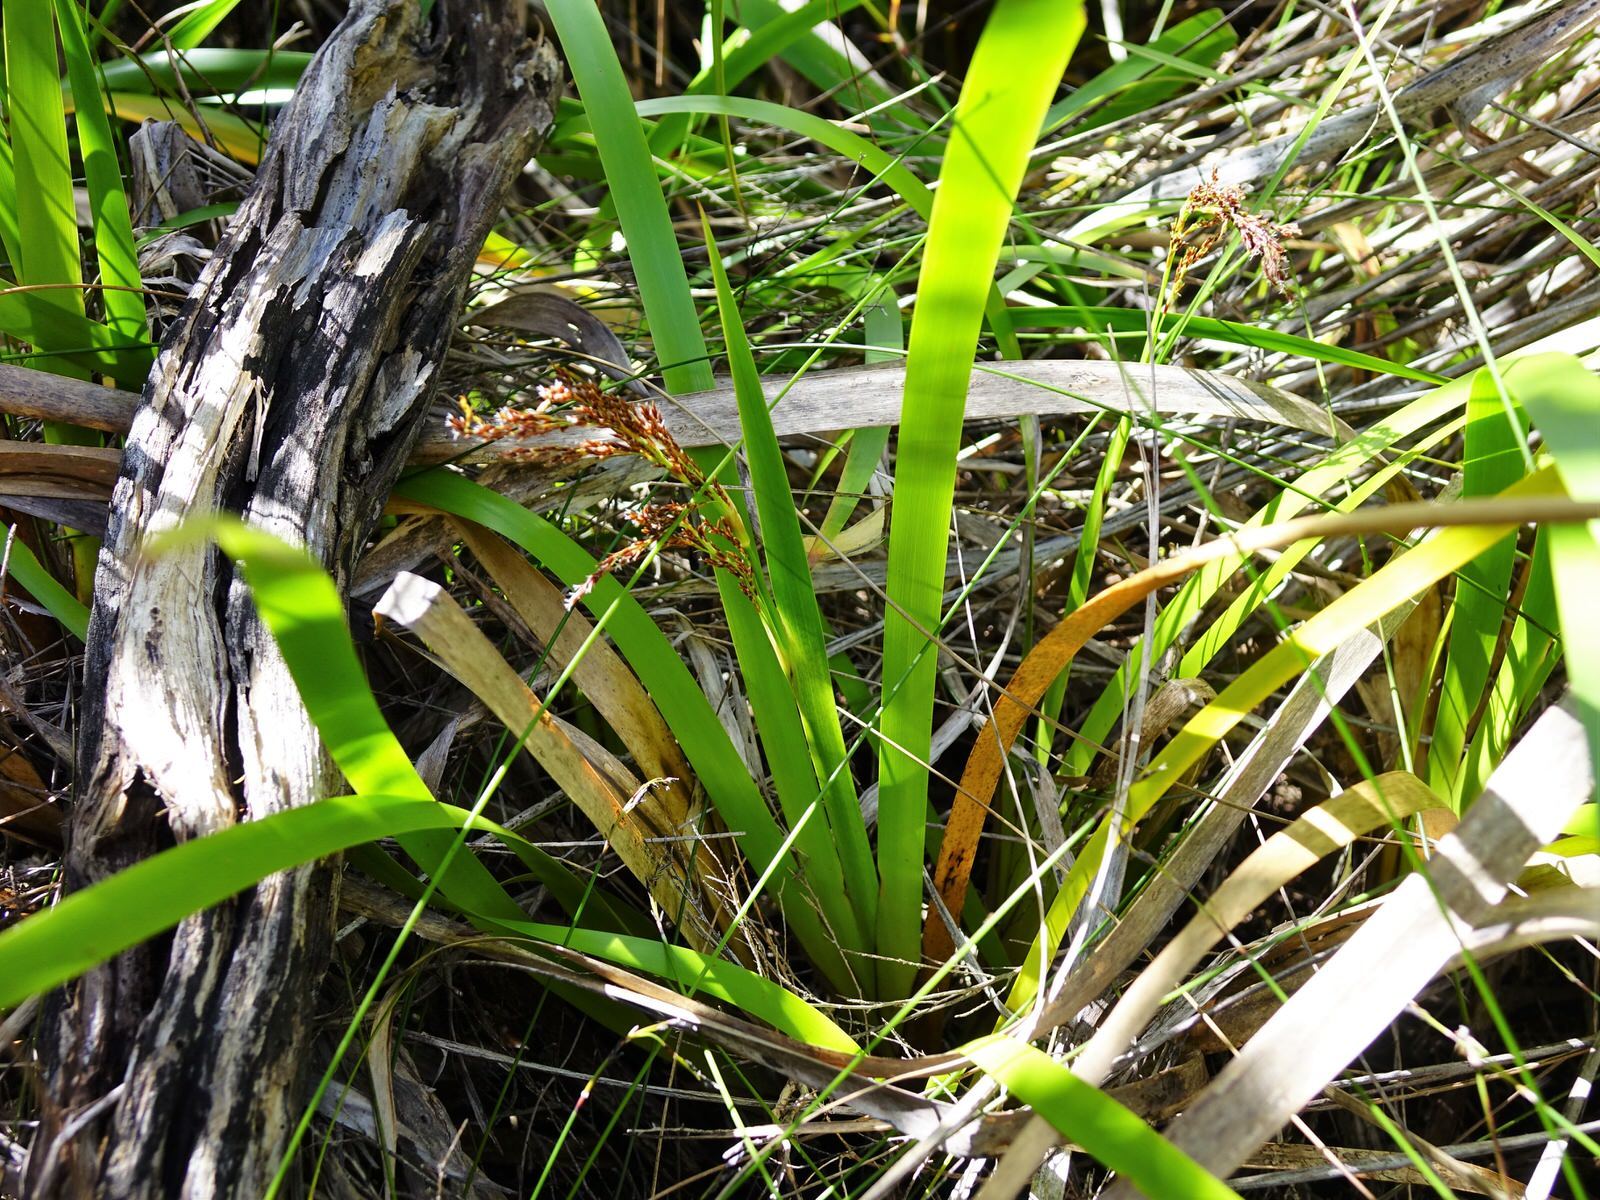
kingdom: Plantae
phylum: Tracheophyta
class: Liliopsida
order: Poales
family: Cyperaceae
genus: Machaerina
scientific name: Machaerina sinclairii
